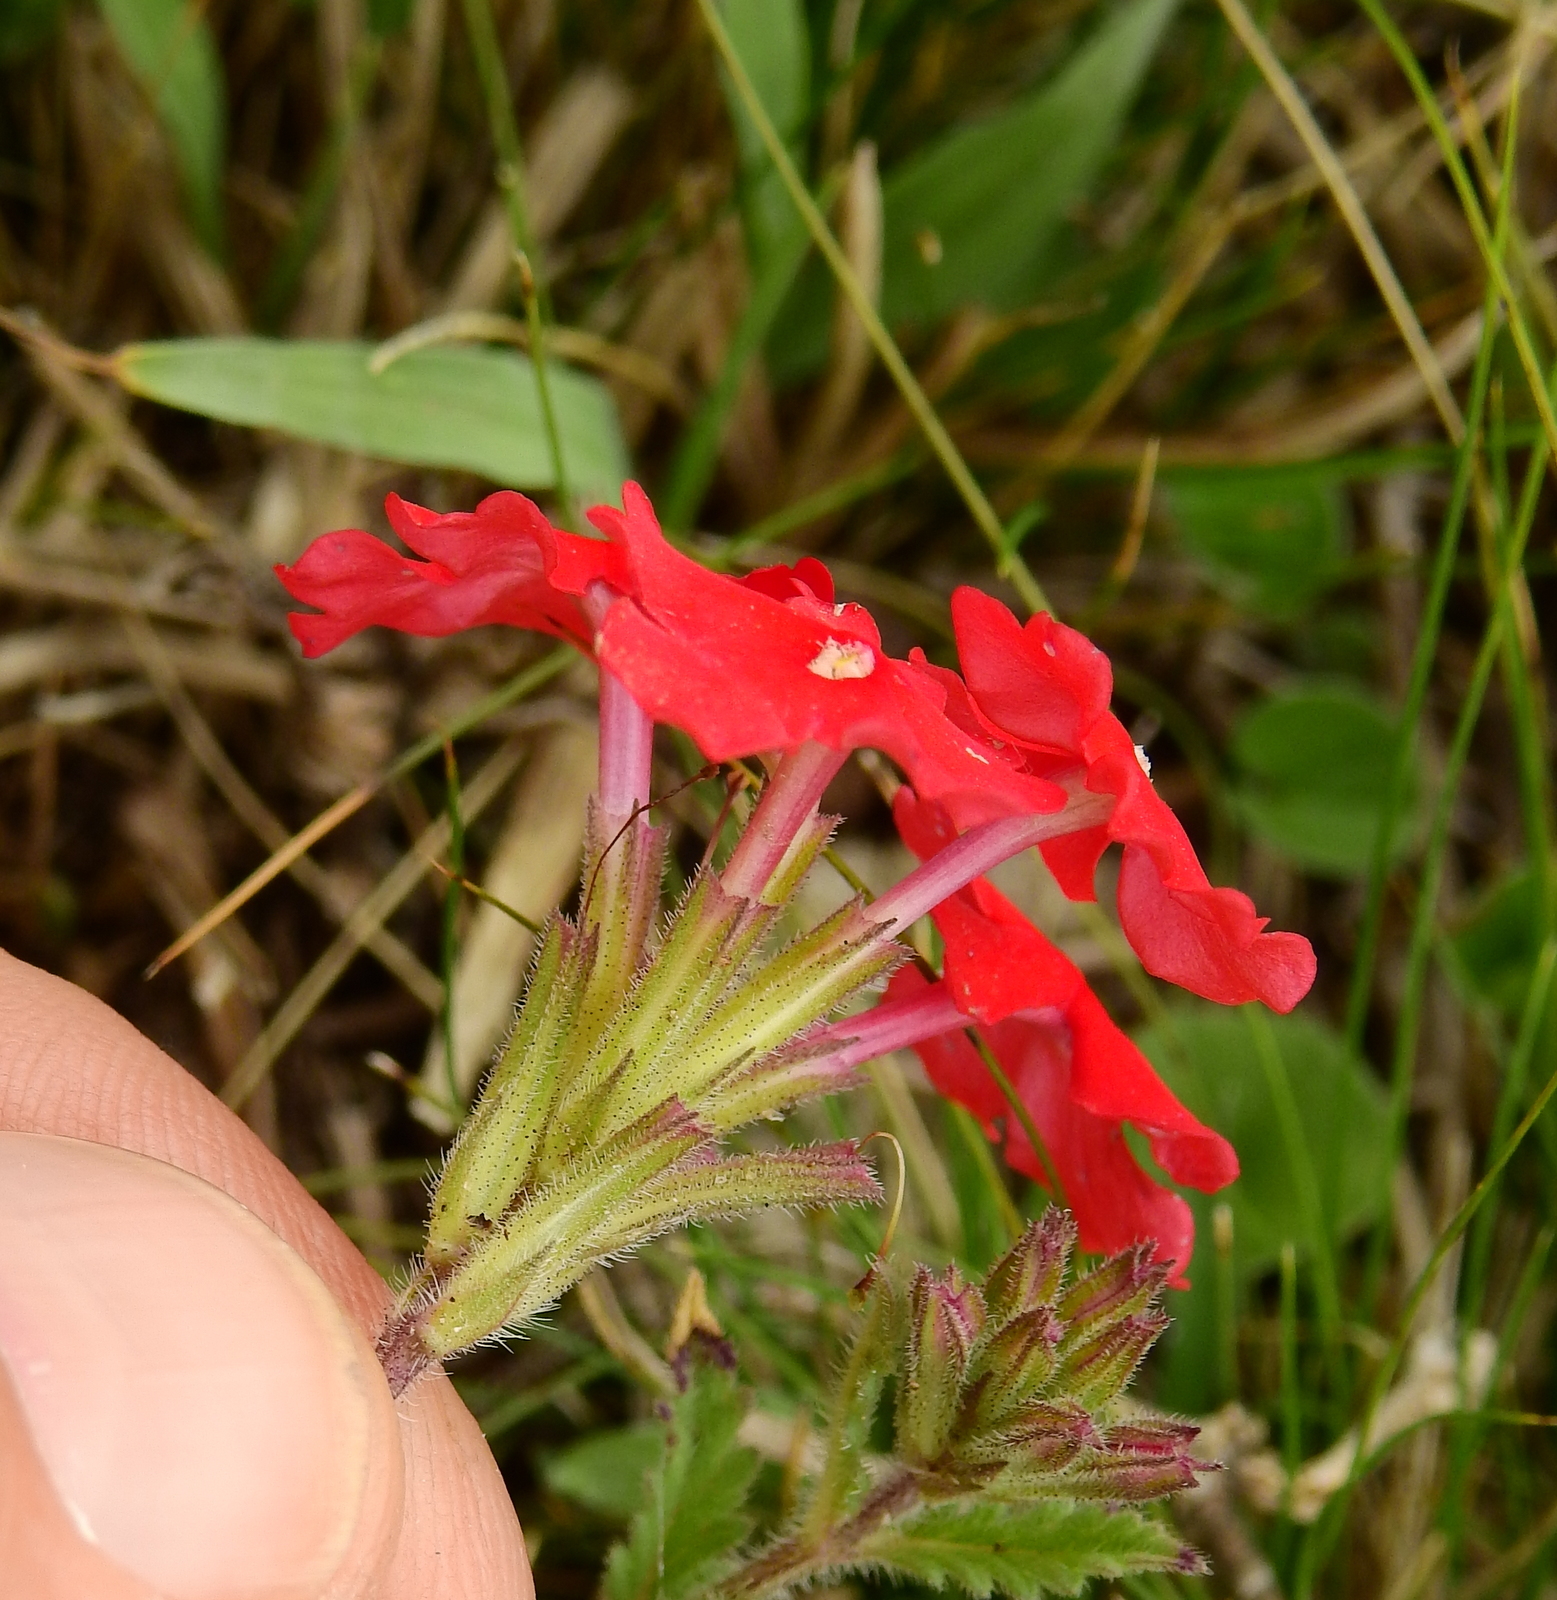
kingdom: Plantae
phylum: Tracheophyta
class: Magnoliopsida
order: Lamiales
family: Verbenaceae
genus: Verbena
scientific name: Verbena peruviana
